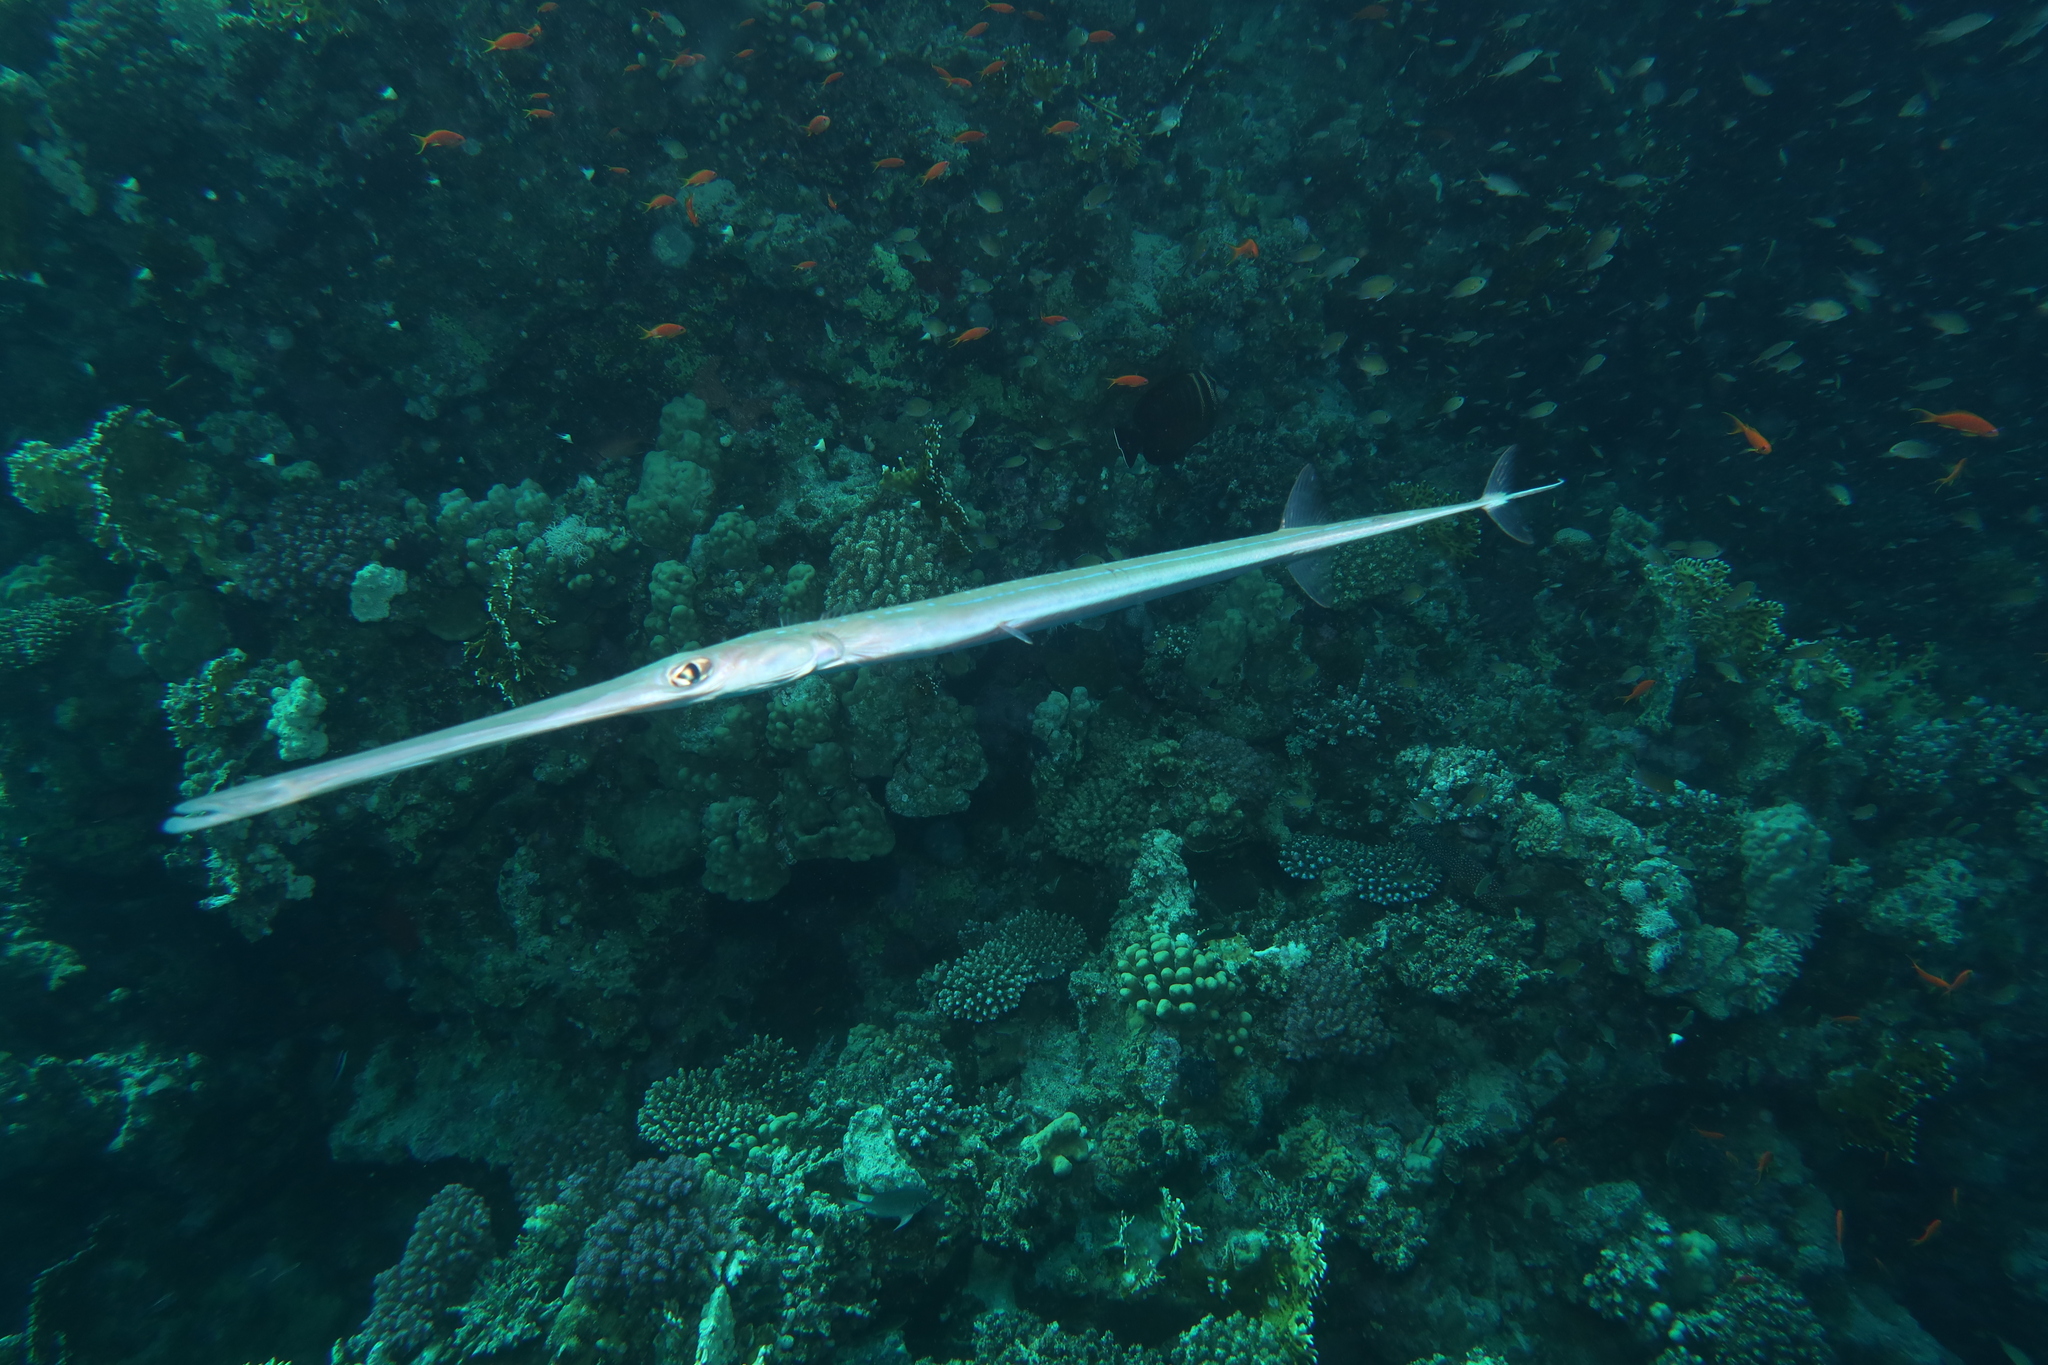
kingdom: Animalia
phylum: Chordata
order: Syngnathiformes
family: Fistulariidae
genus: Fistularia
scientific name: Fistularia commersonii
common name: Bluespotted cornetfish
